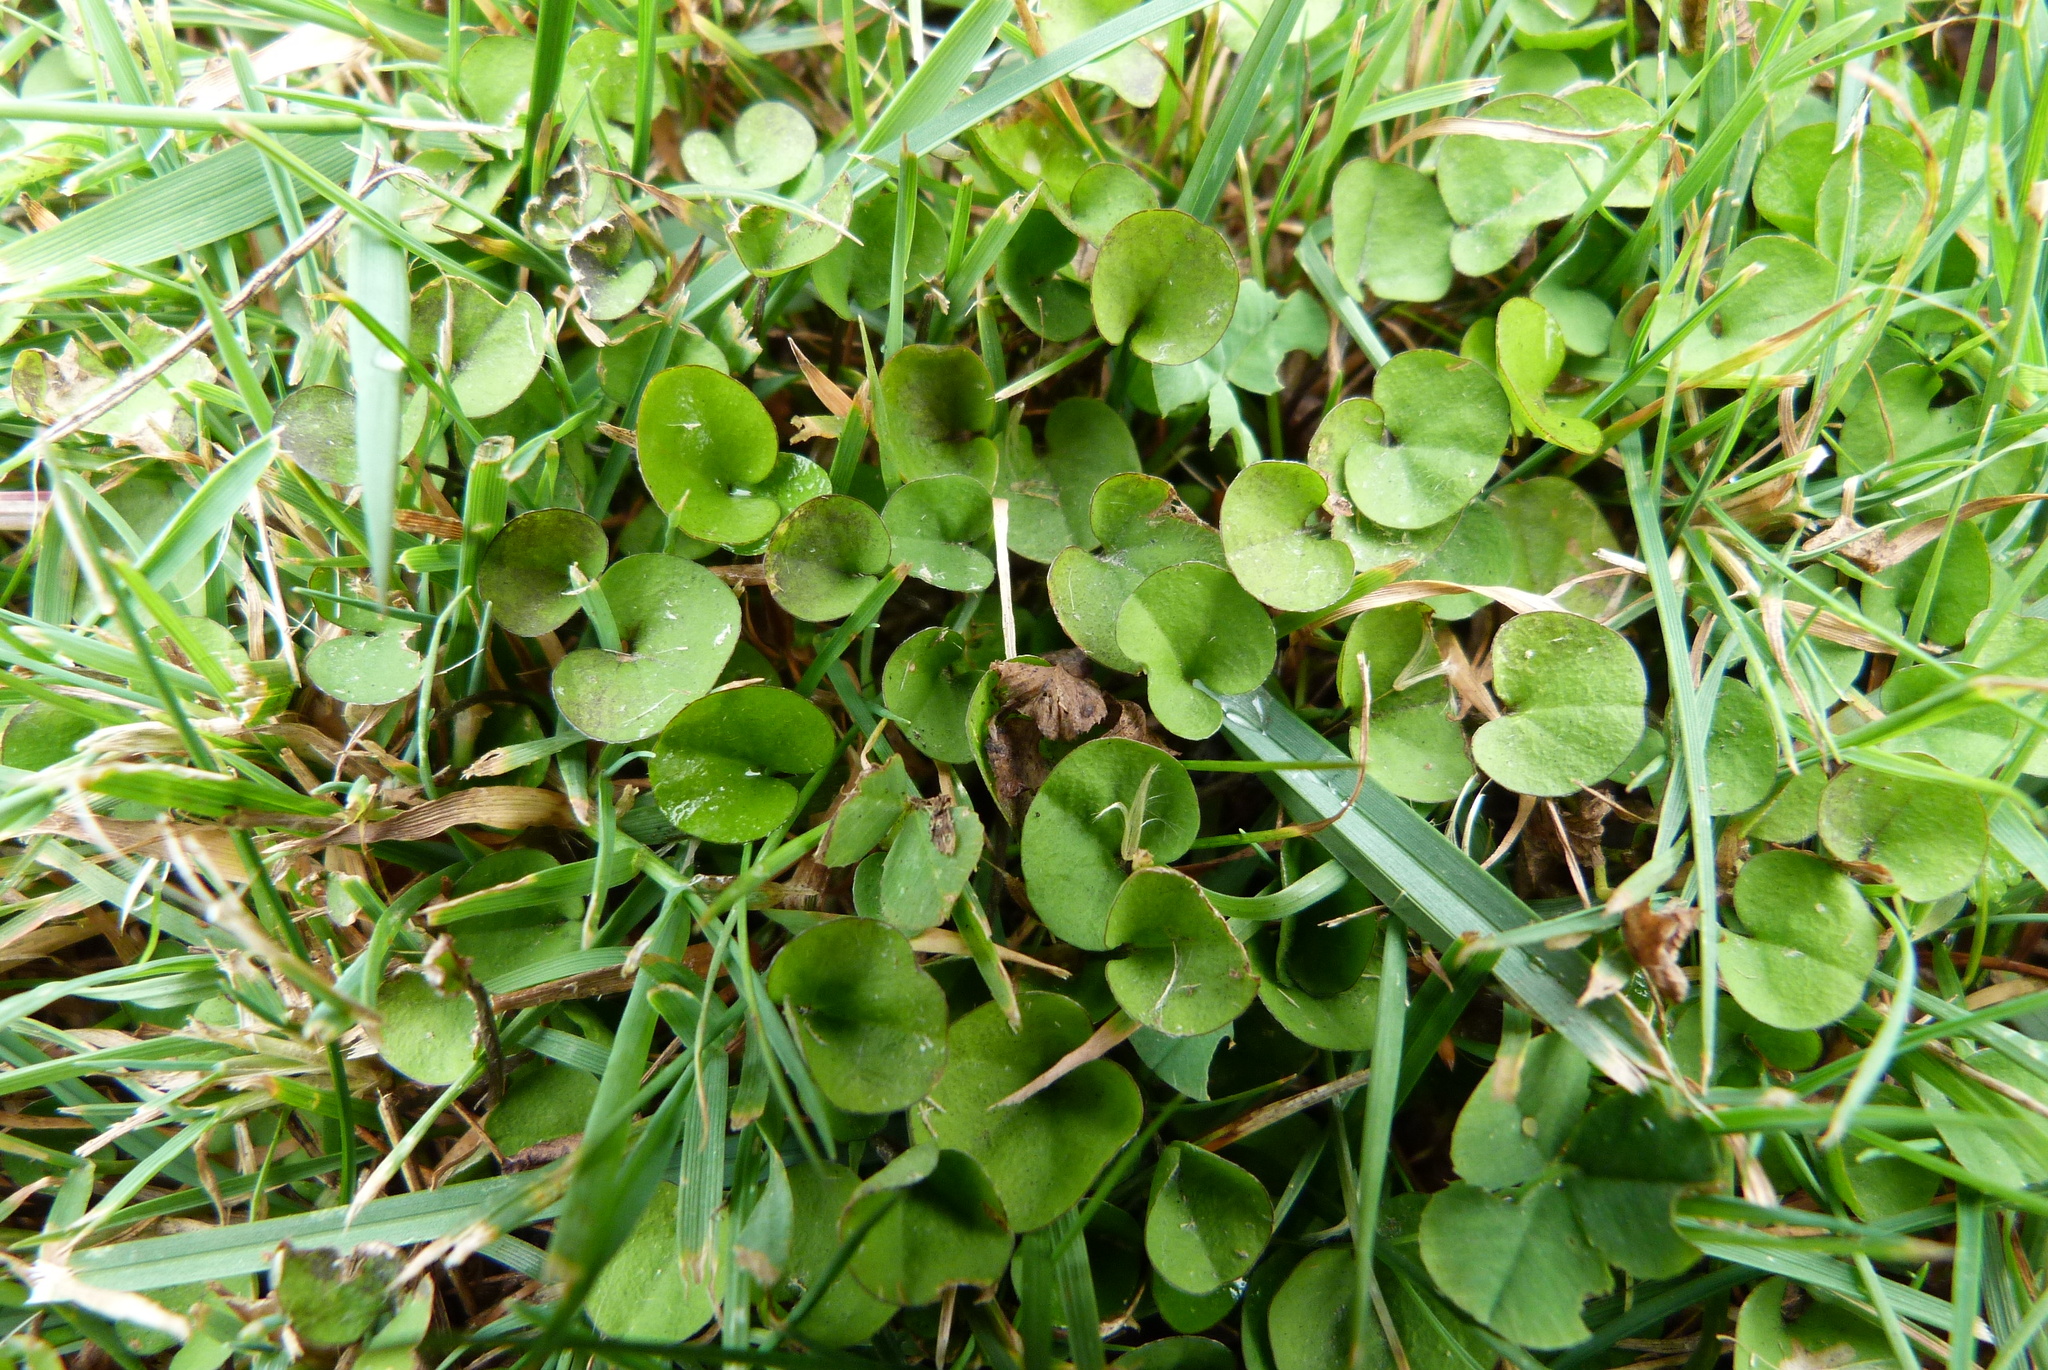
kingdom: Plantae
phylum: Tracheophyta
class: Magnoliopsida
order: Solanales
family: Convolvulaceae
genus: Dichondra
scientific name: Dichondra brevifolia
